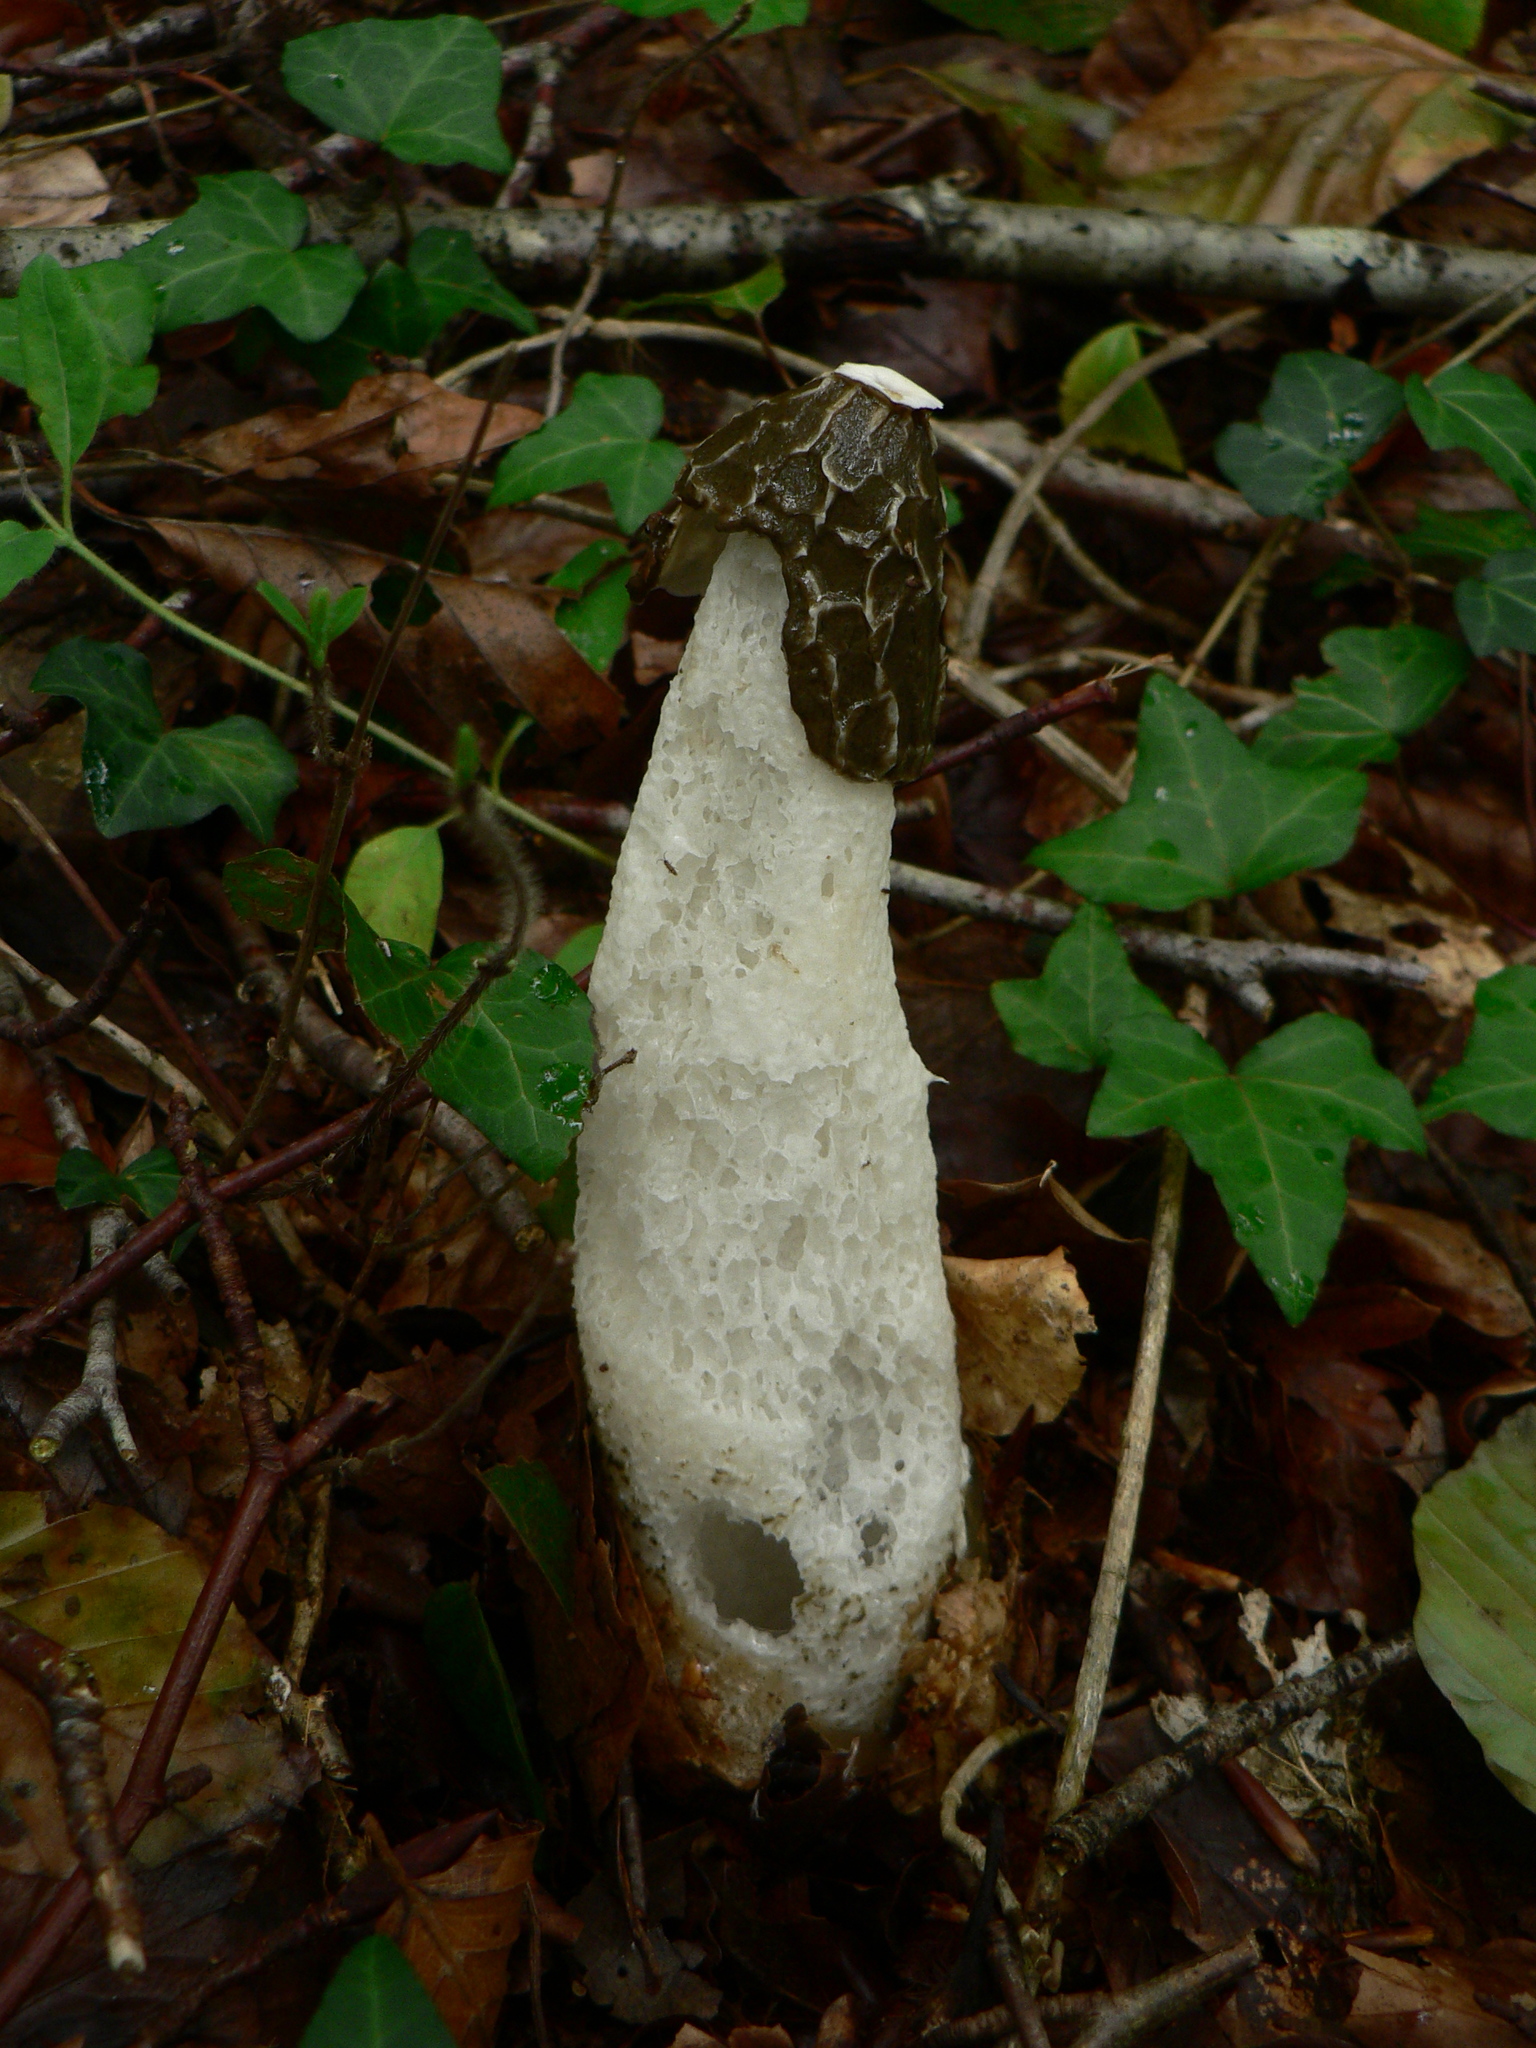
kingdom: Fungi
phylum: Basidiomycota
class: Agaricomycetes
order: Phallales
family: Phallaceae
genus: Phallus
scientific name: Phallus impudicus
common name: Common stinkhorn
